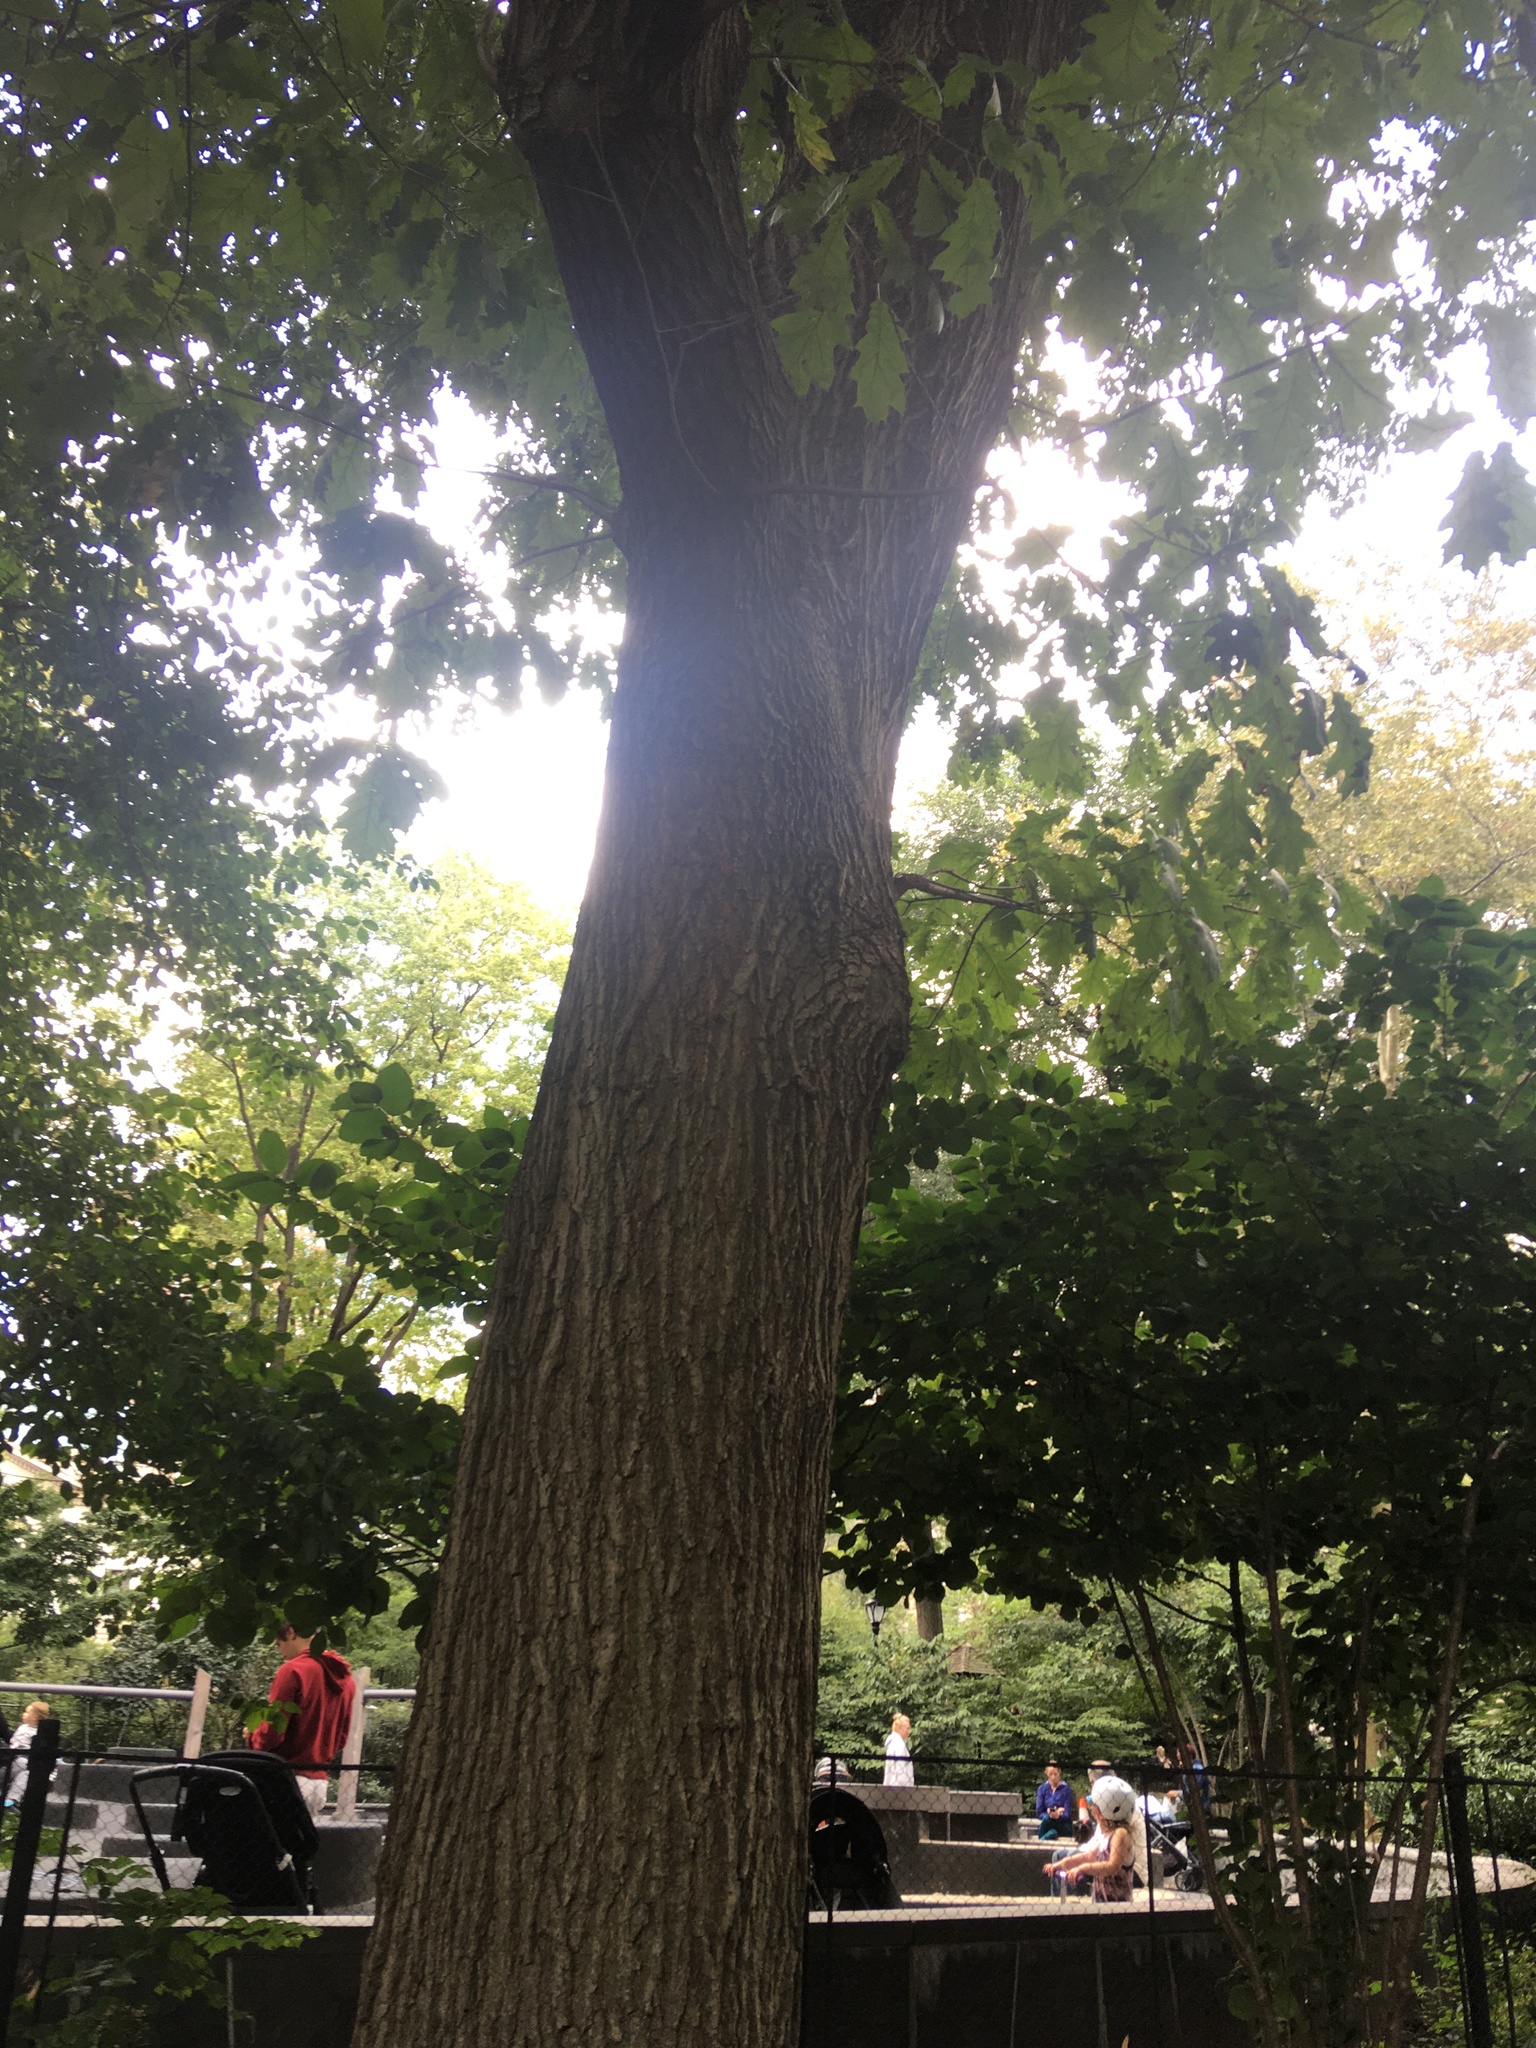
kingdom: Plantae
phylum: Tracheophyta
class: Magnoliopsida
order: Fagales
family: Fagaceae
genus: Quercus
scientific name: Quercus rubra
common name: Red oak
